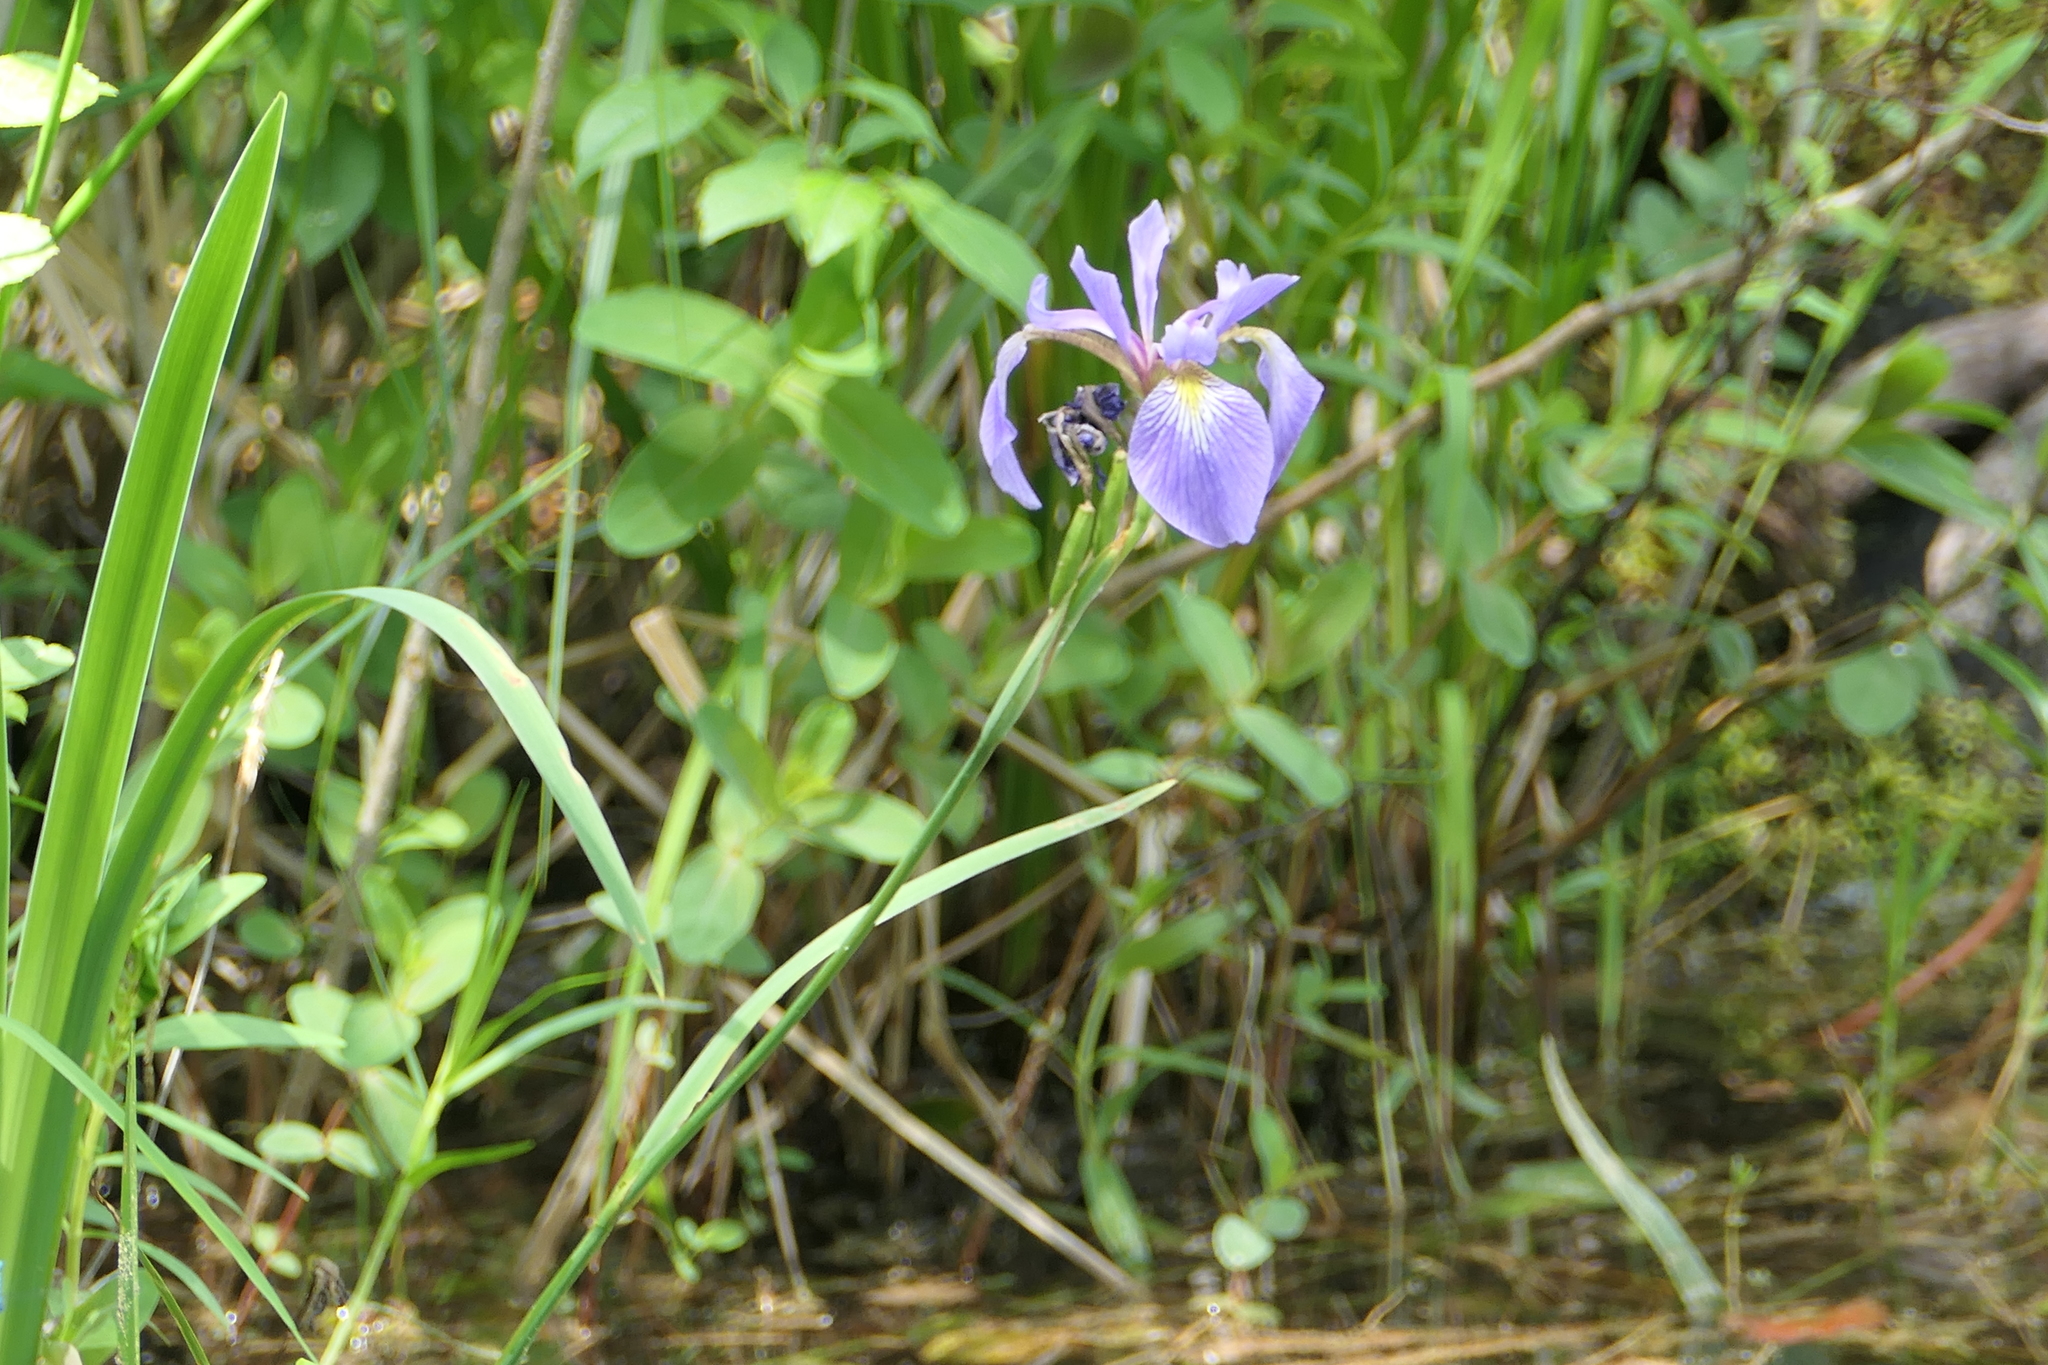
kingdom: Plantae
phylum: Tracheophyta
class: Liliopsida
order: Asparagales
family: Iridaceae
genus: Iris
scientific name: Iris versicolor
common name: Purple iris
